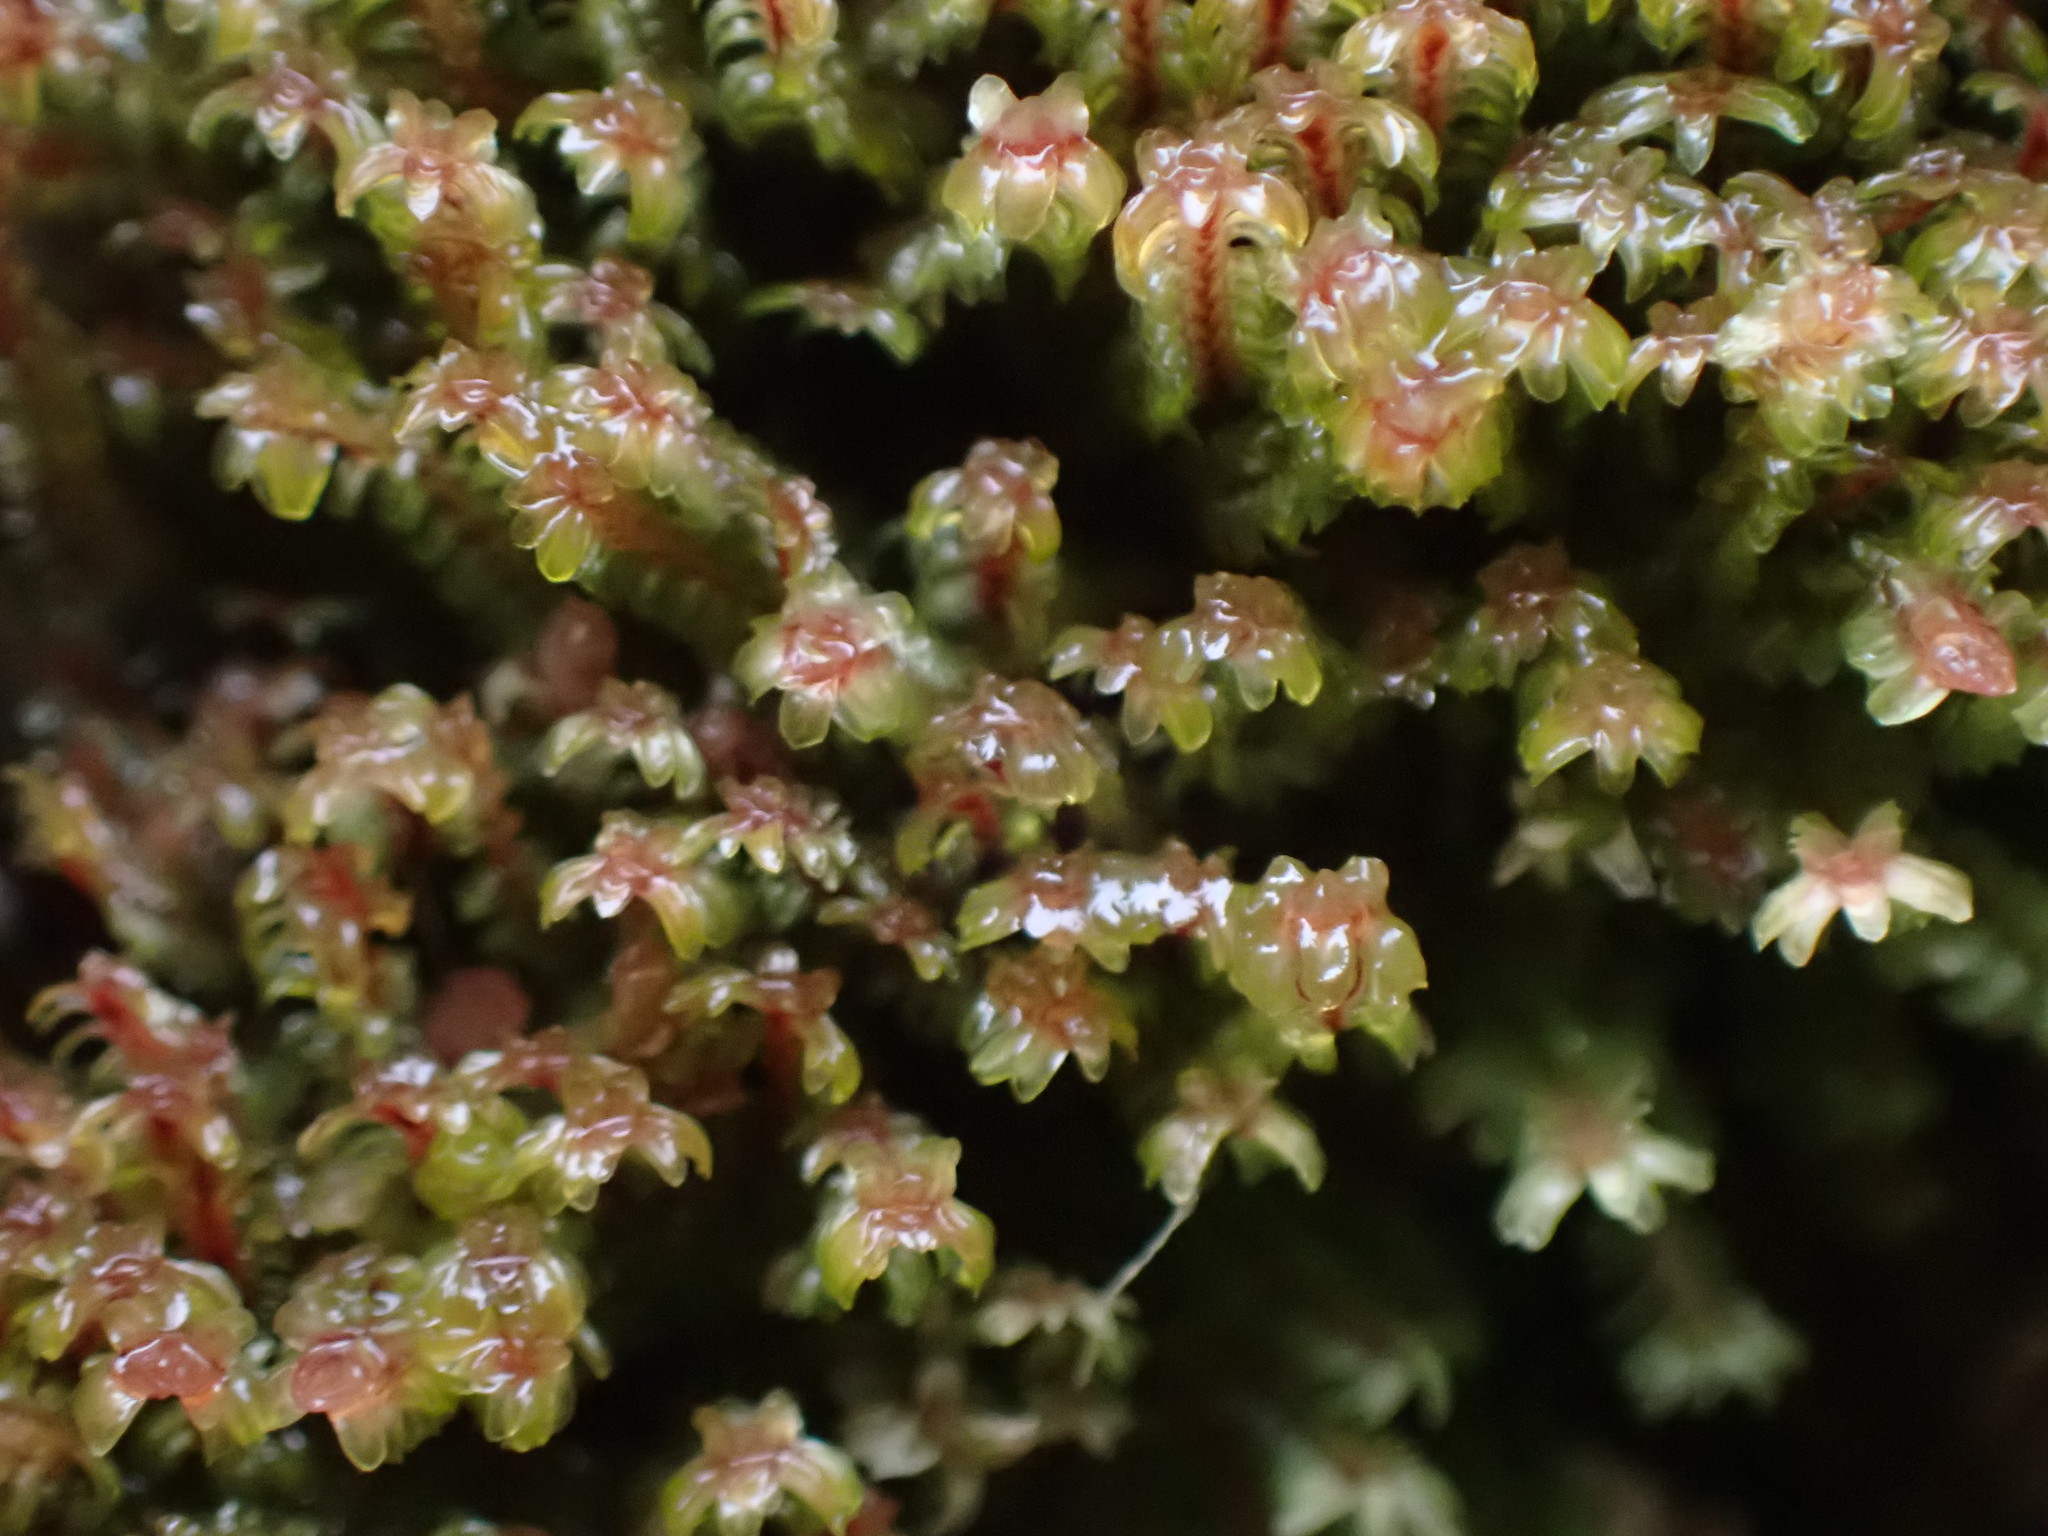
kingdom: Plantae
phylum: Marchantiophyta
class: Jungermanniopsida
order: Jungermanniales
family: Scapaniaceae
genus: Diplophyllum
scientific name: Diplophyllum albicans
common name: White earwort
